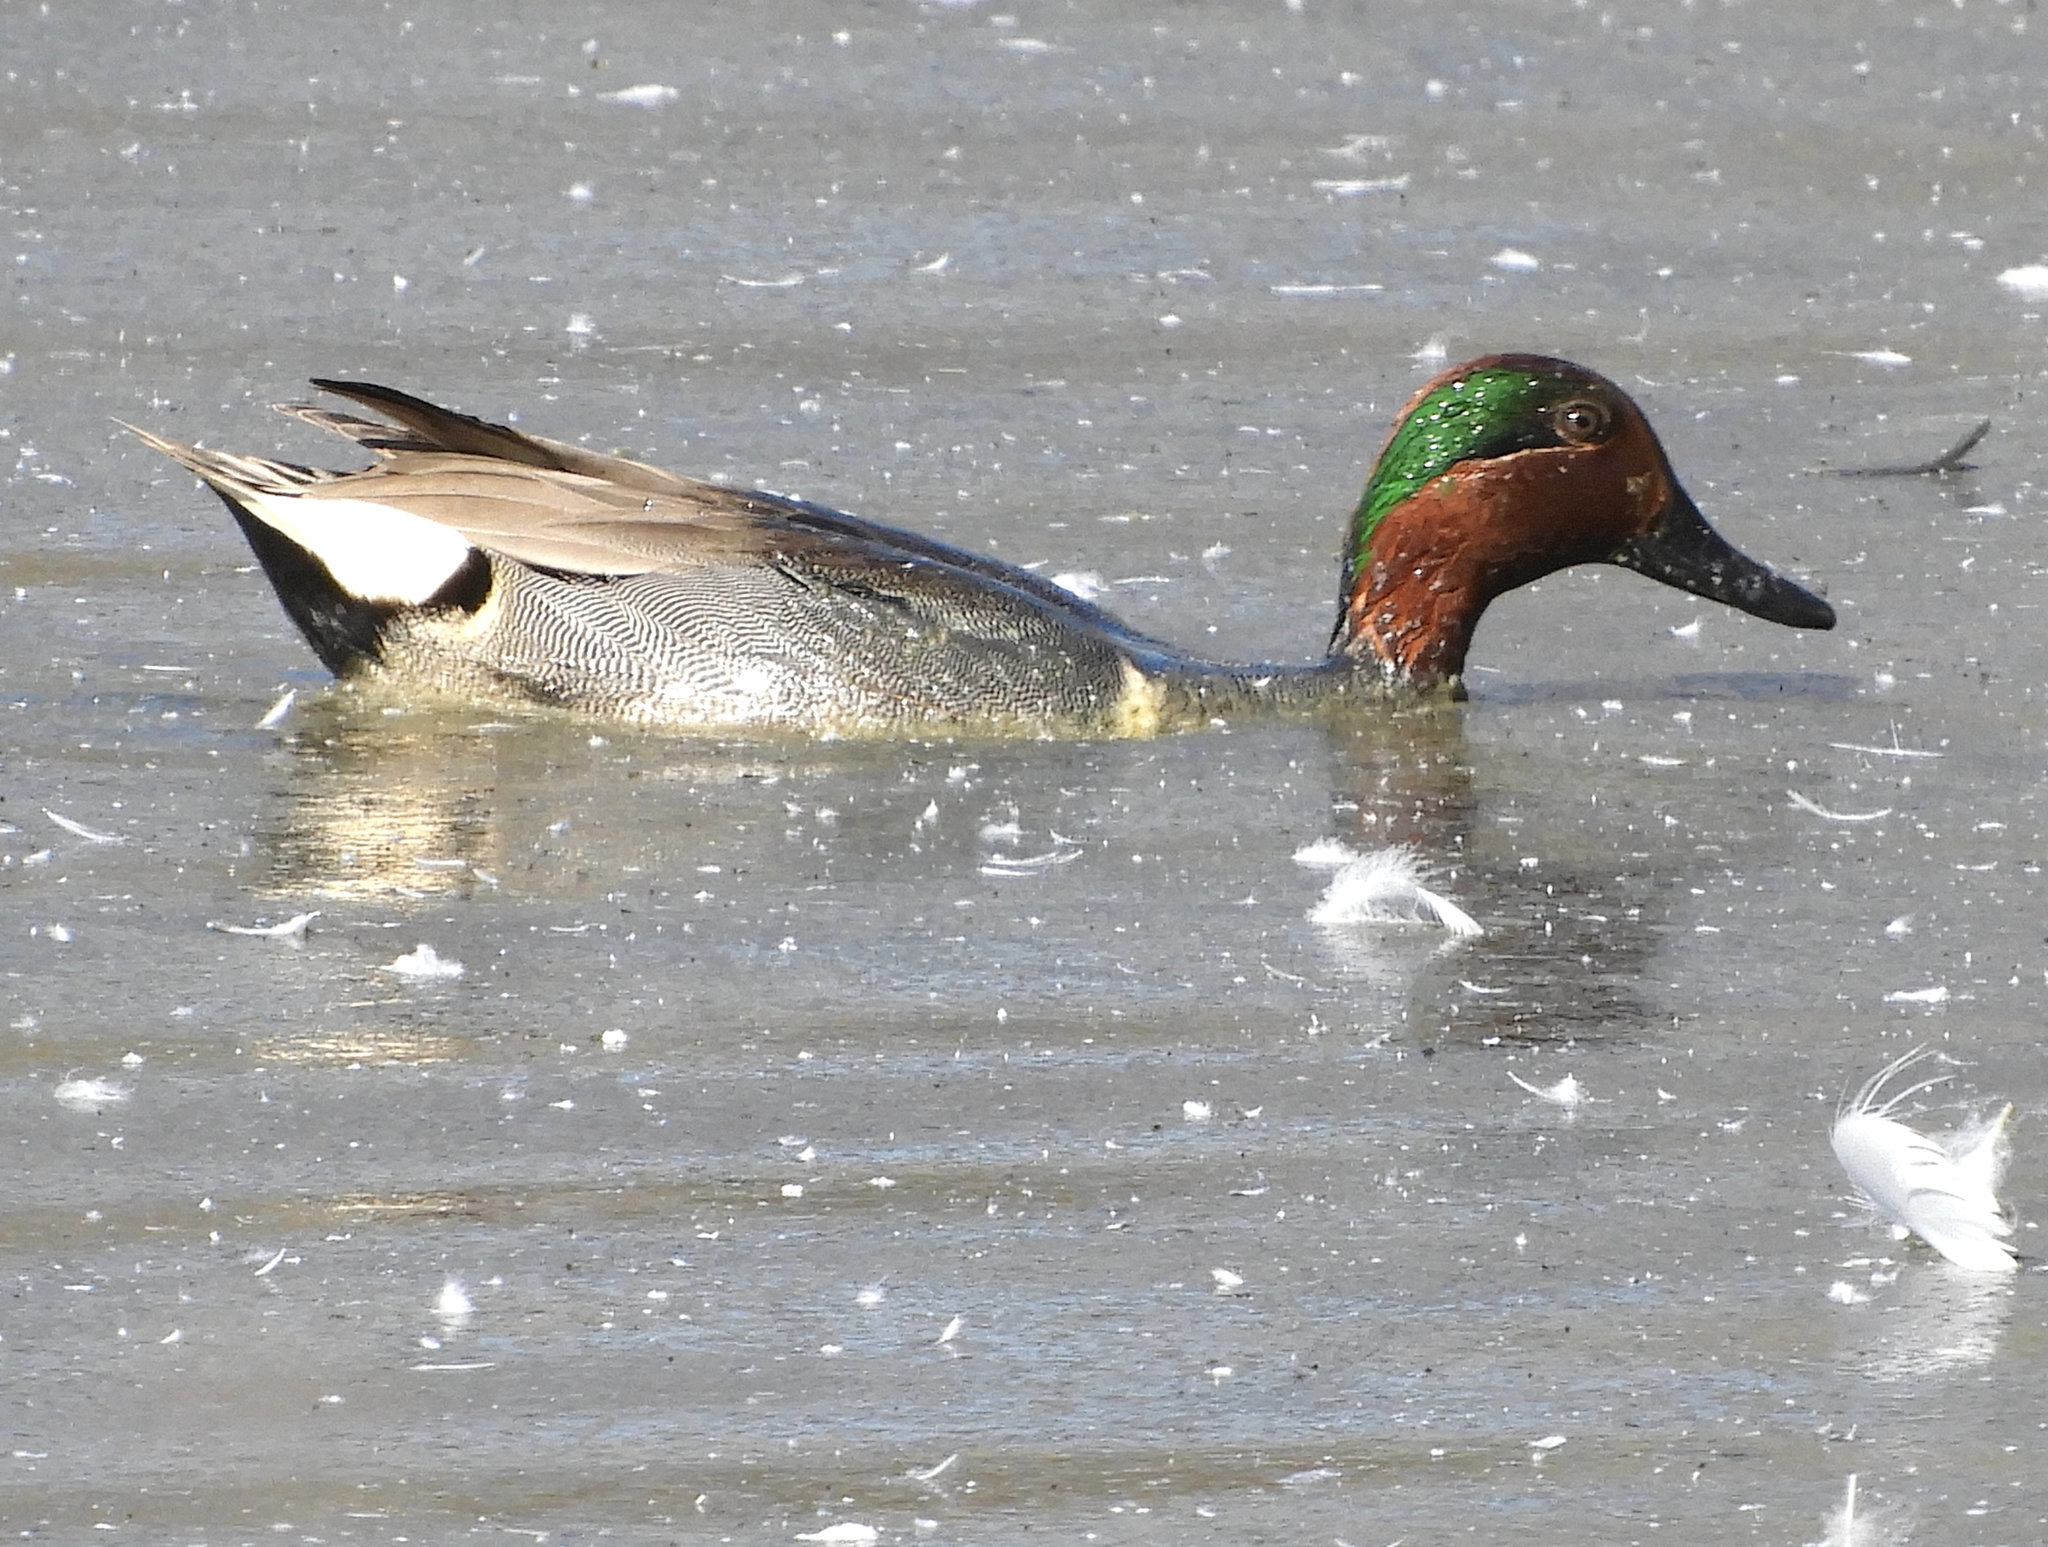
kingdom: Animalia
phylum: Chordata
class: Aves
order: Anseriformes
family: Anatidae
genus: Anas
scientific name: Anas crecca
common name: Eurasian teal
